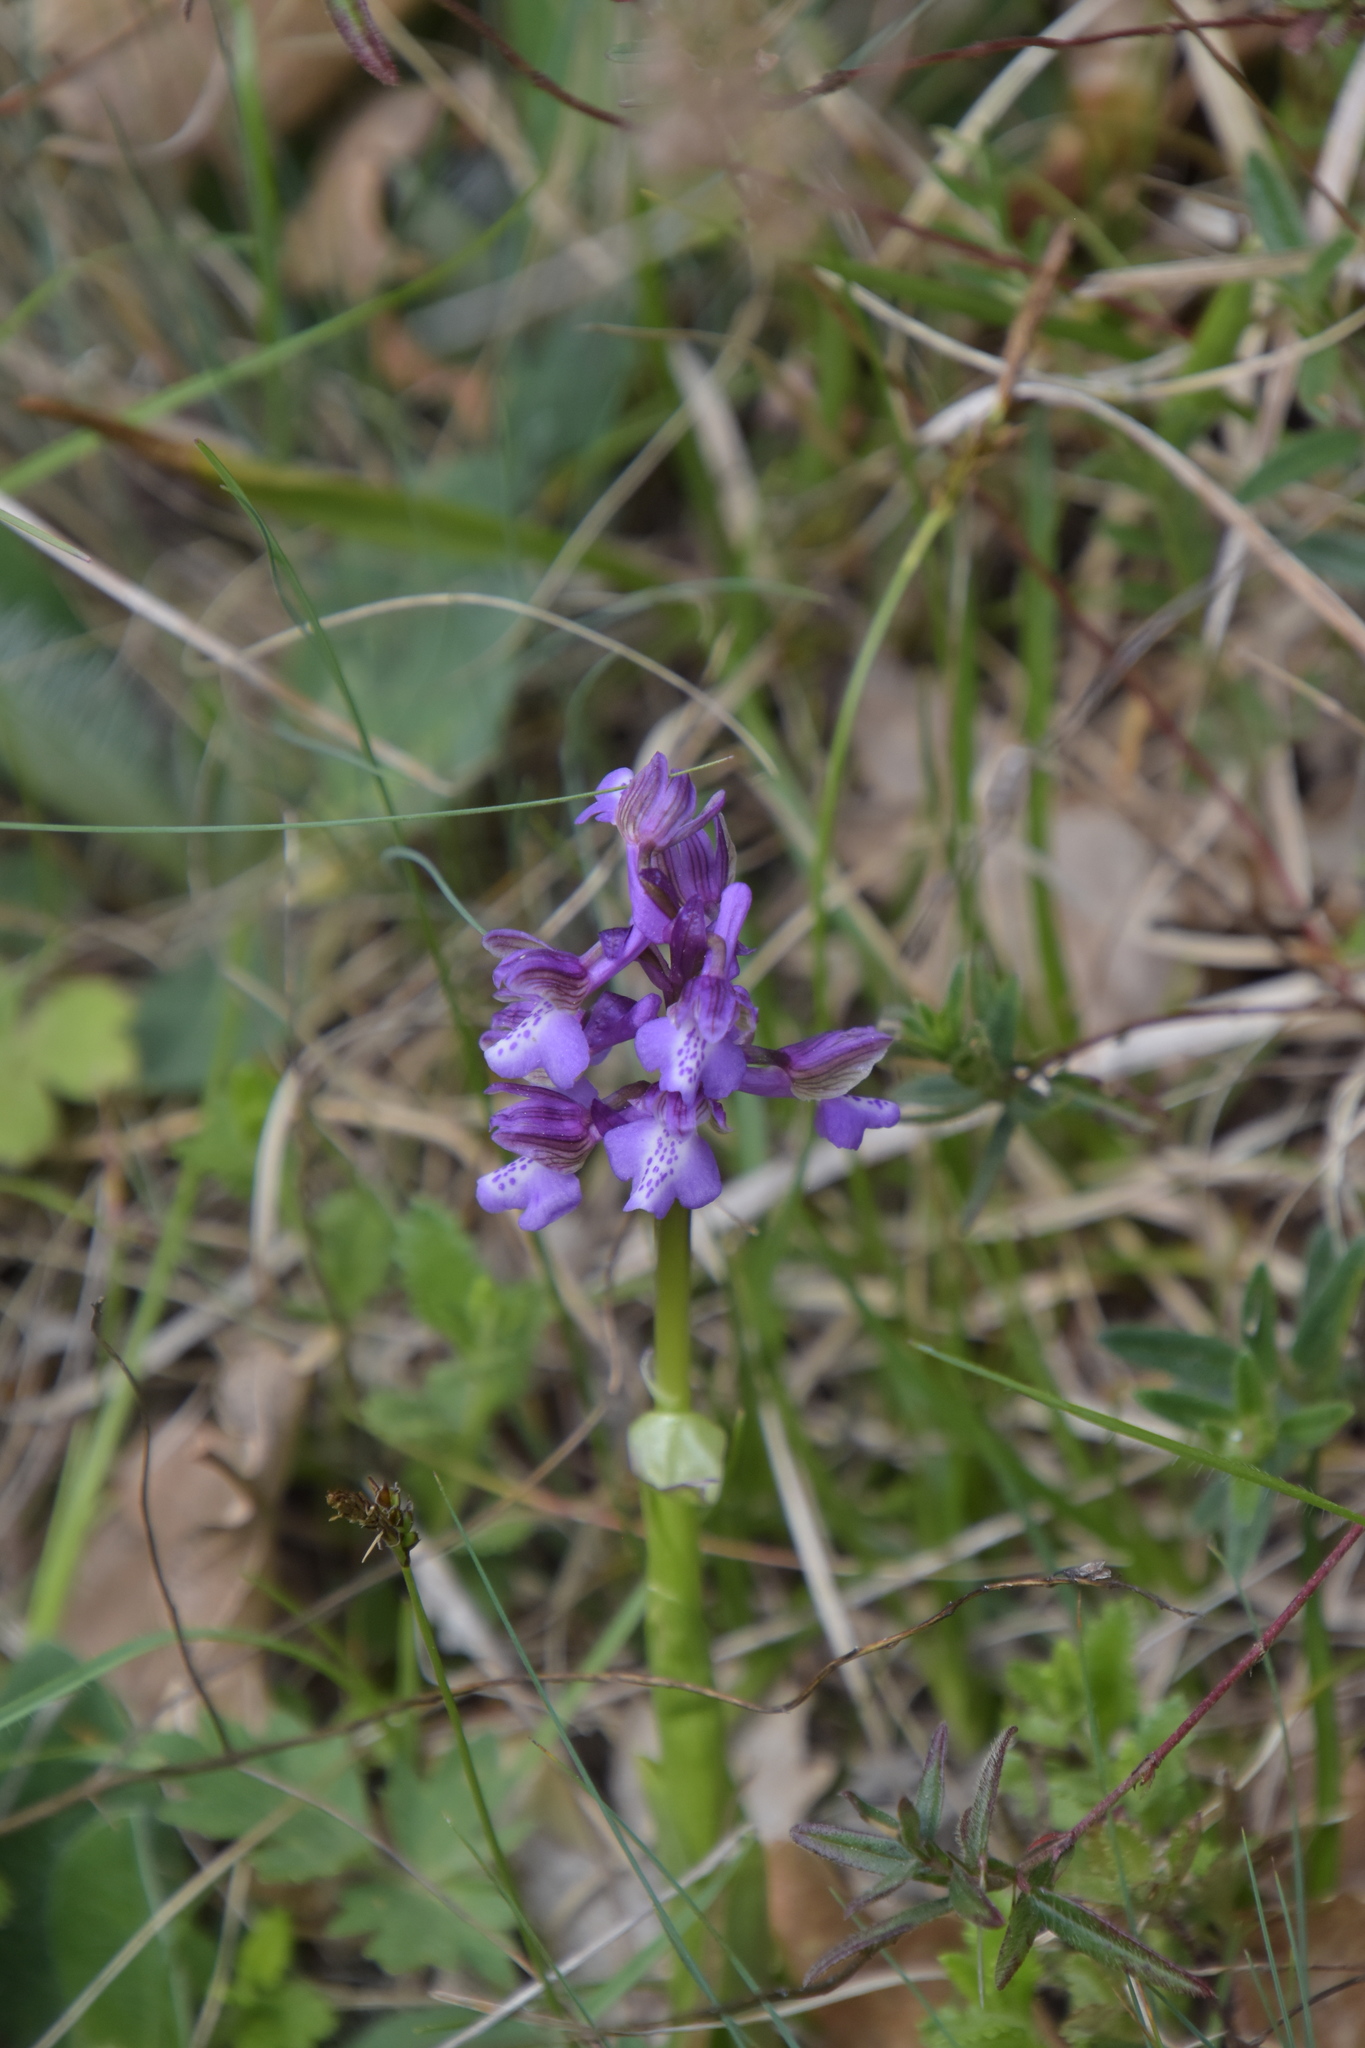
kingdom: Plantae
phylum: Tracheophyta
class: Liliopsida
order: Asparagales
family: Orchidaceae
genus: Anacamptis
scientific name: Anacamptis morio
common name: Green-winged orchid
